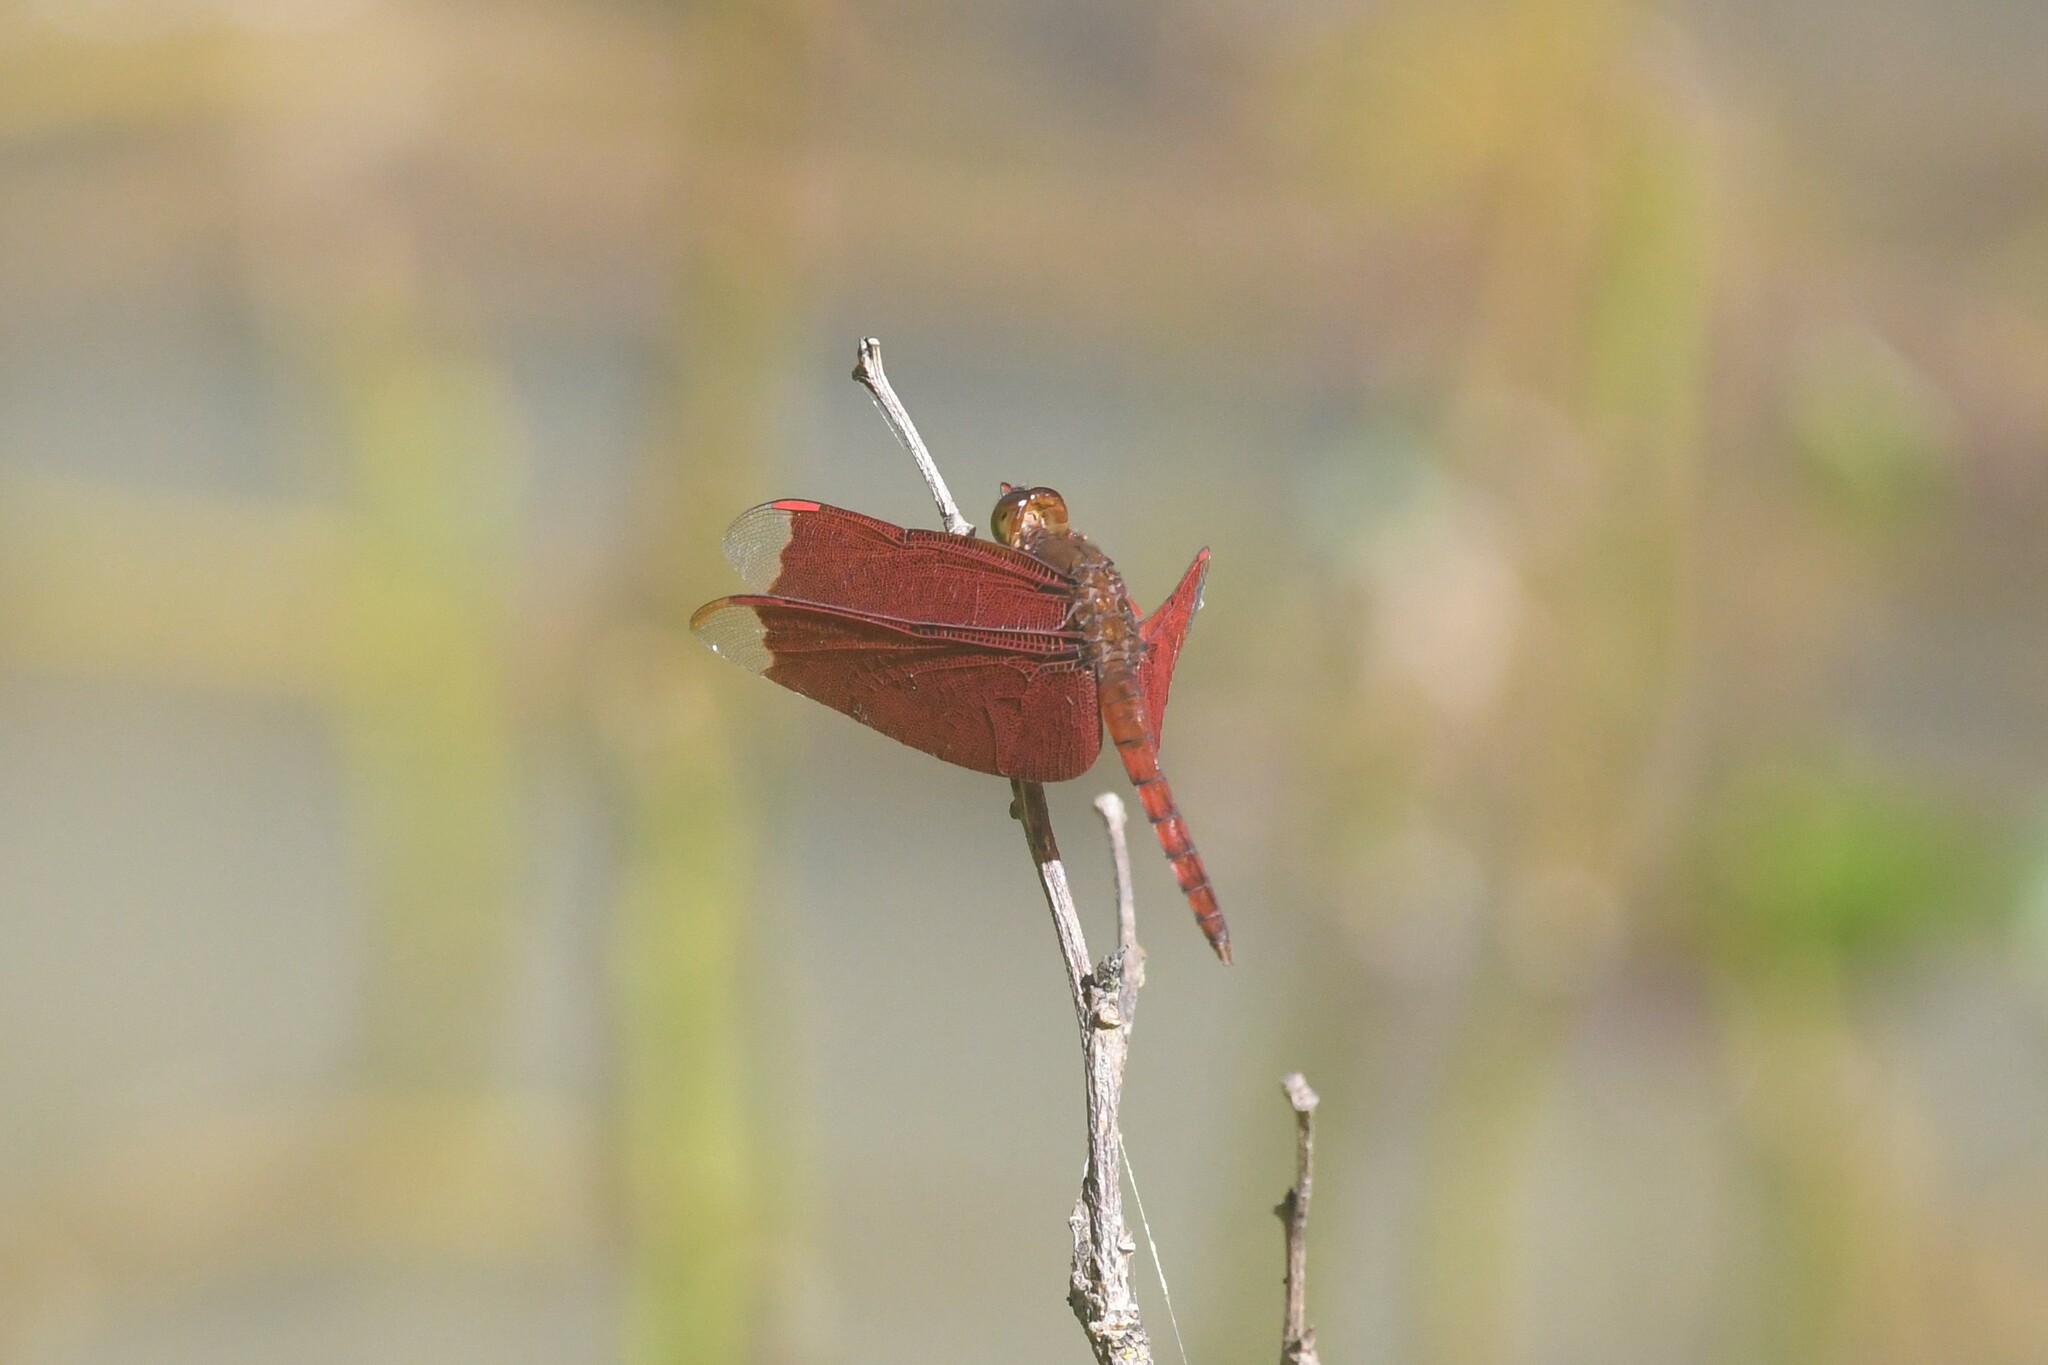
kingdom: Animalia
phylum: Arthropoda
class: Insecta
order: Odonata
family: Libellulidae
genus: Neurothemis
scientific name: Neurothemis fulvia
